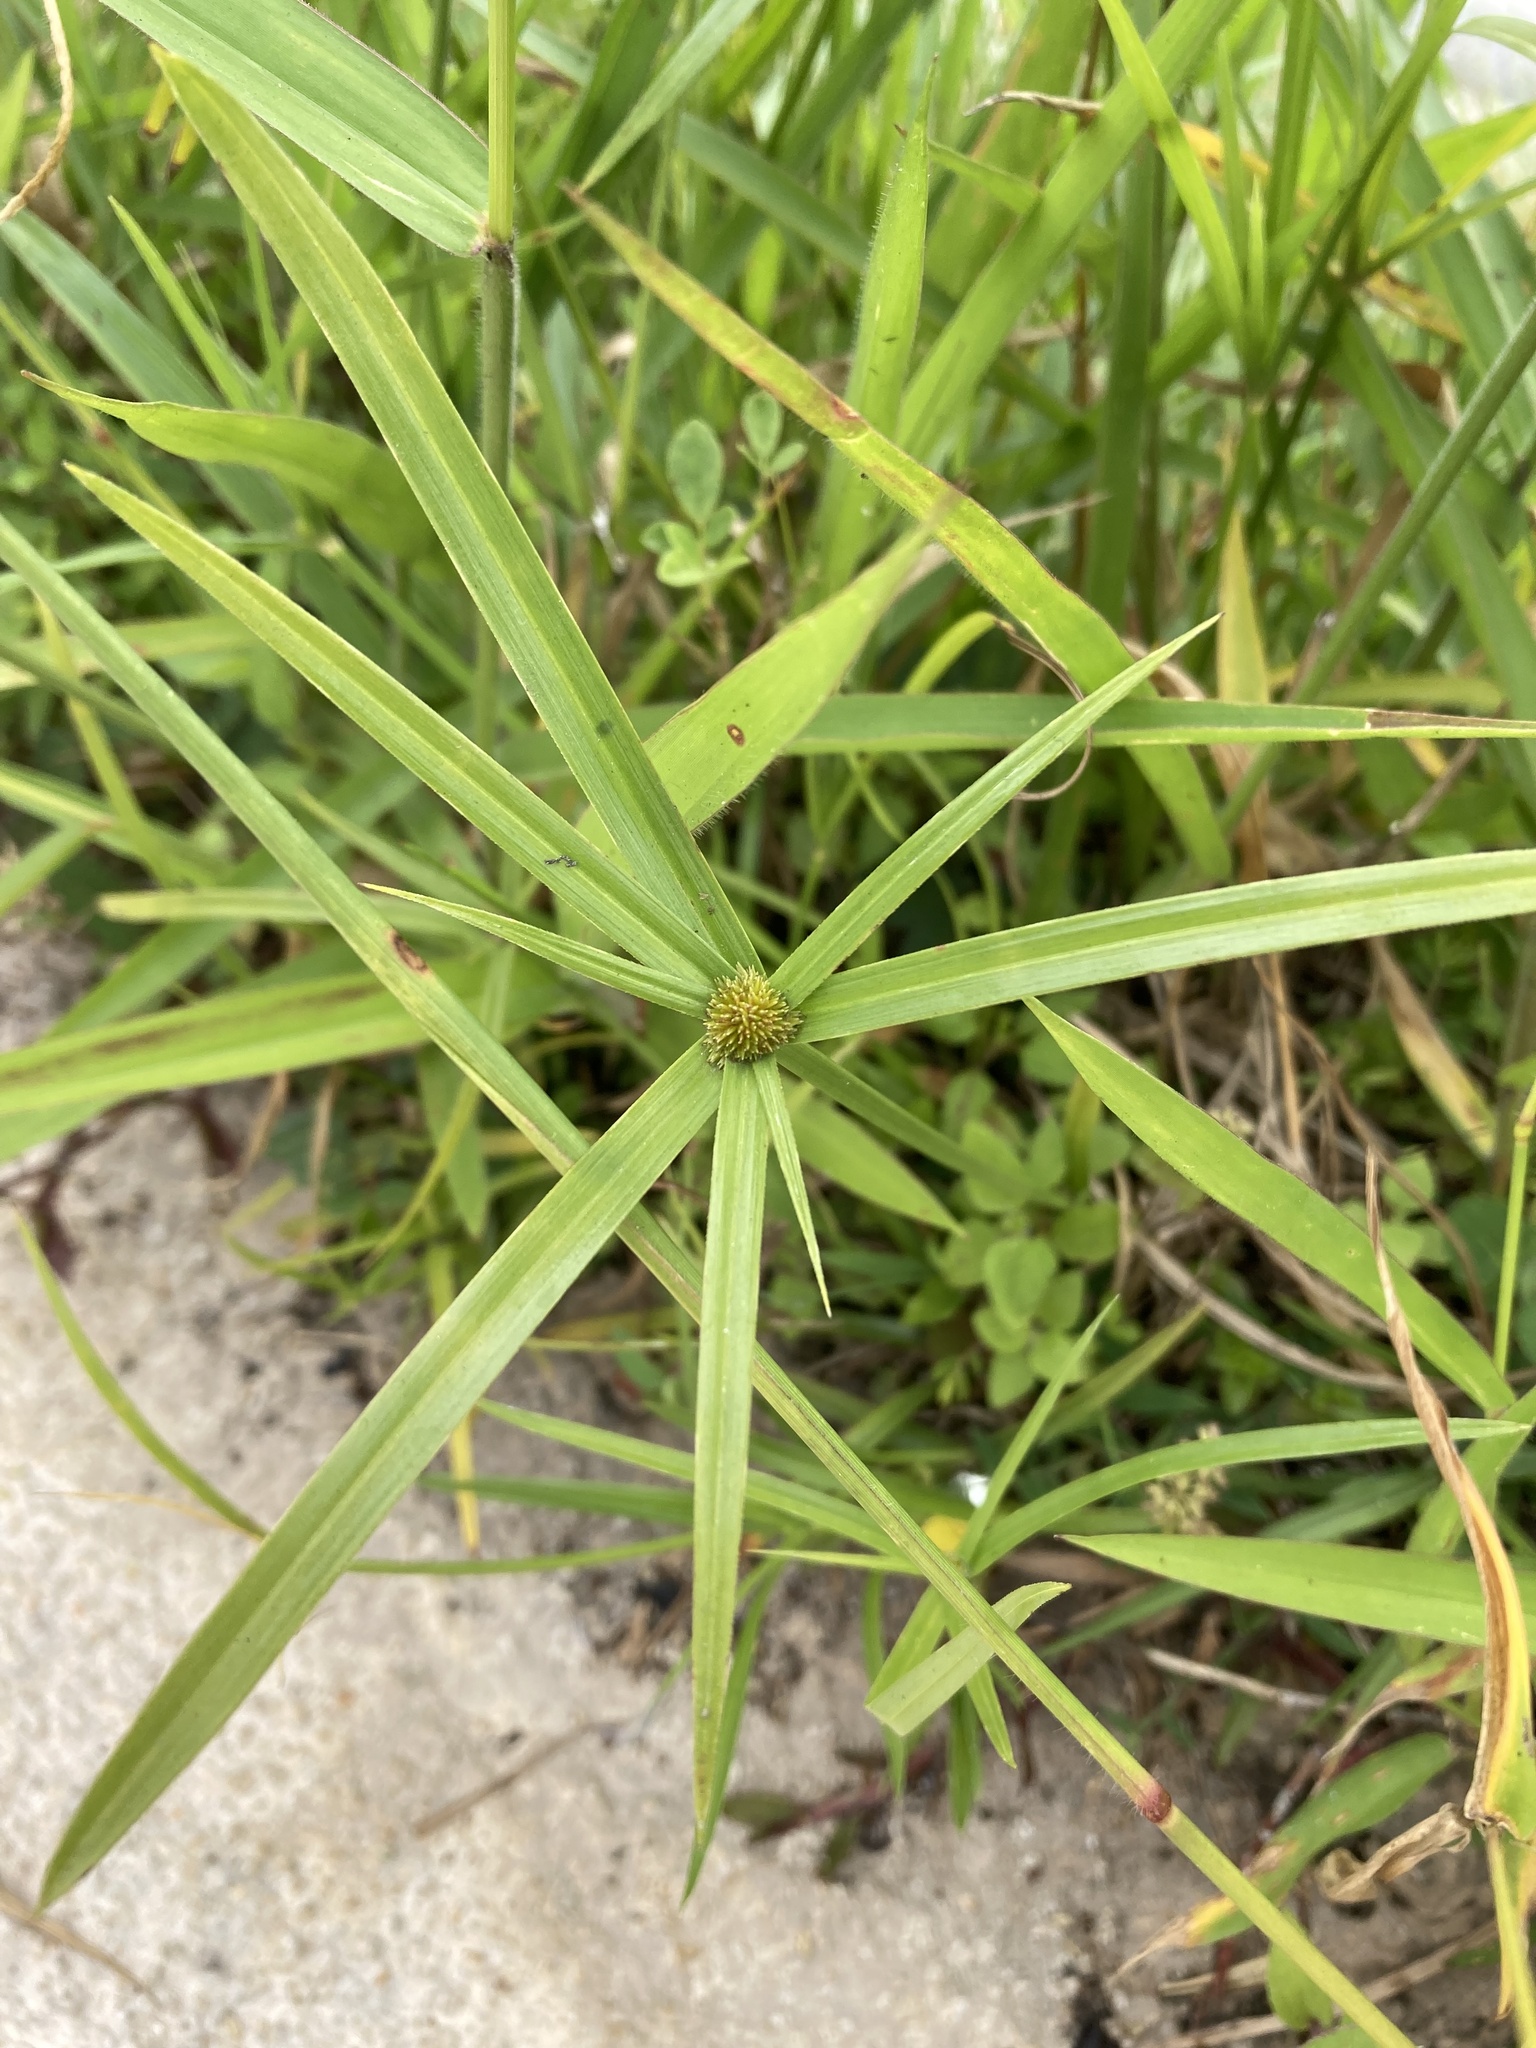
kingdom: Plantae
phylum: Tracheophyta
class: Liliopsida
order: Poales
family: Cyperaceae
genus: Cyperus
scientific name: Cyperus aromaticus
